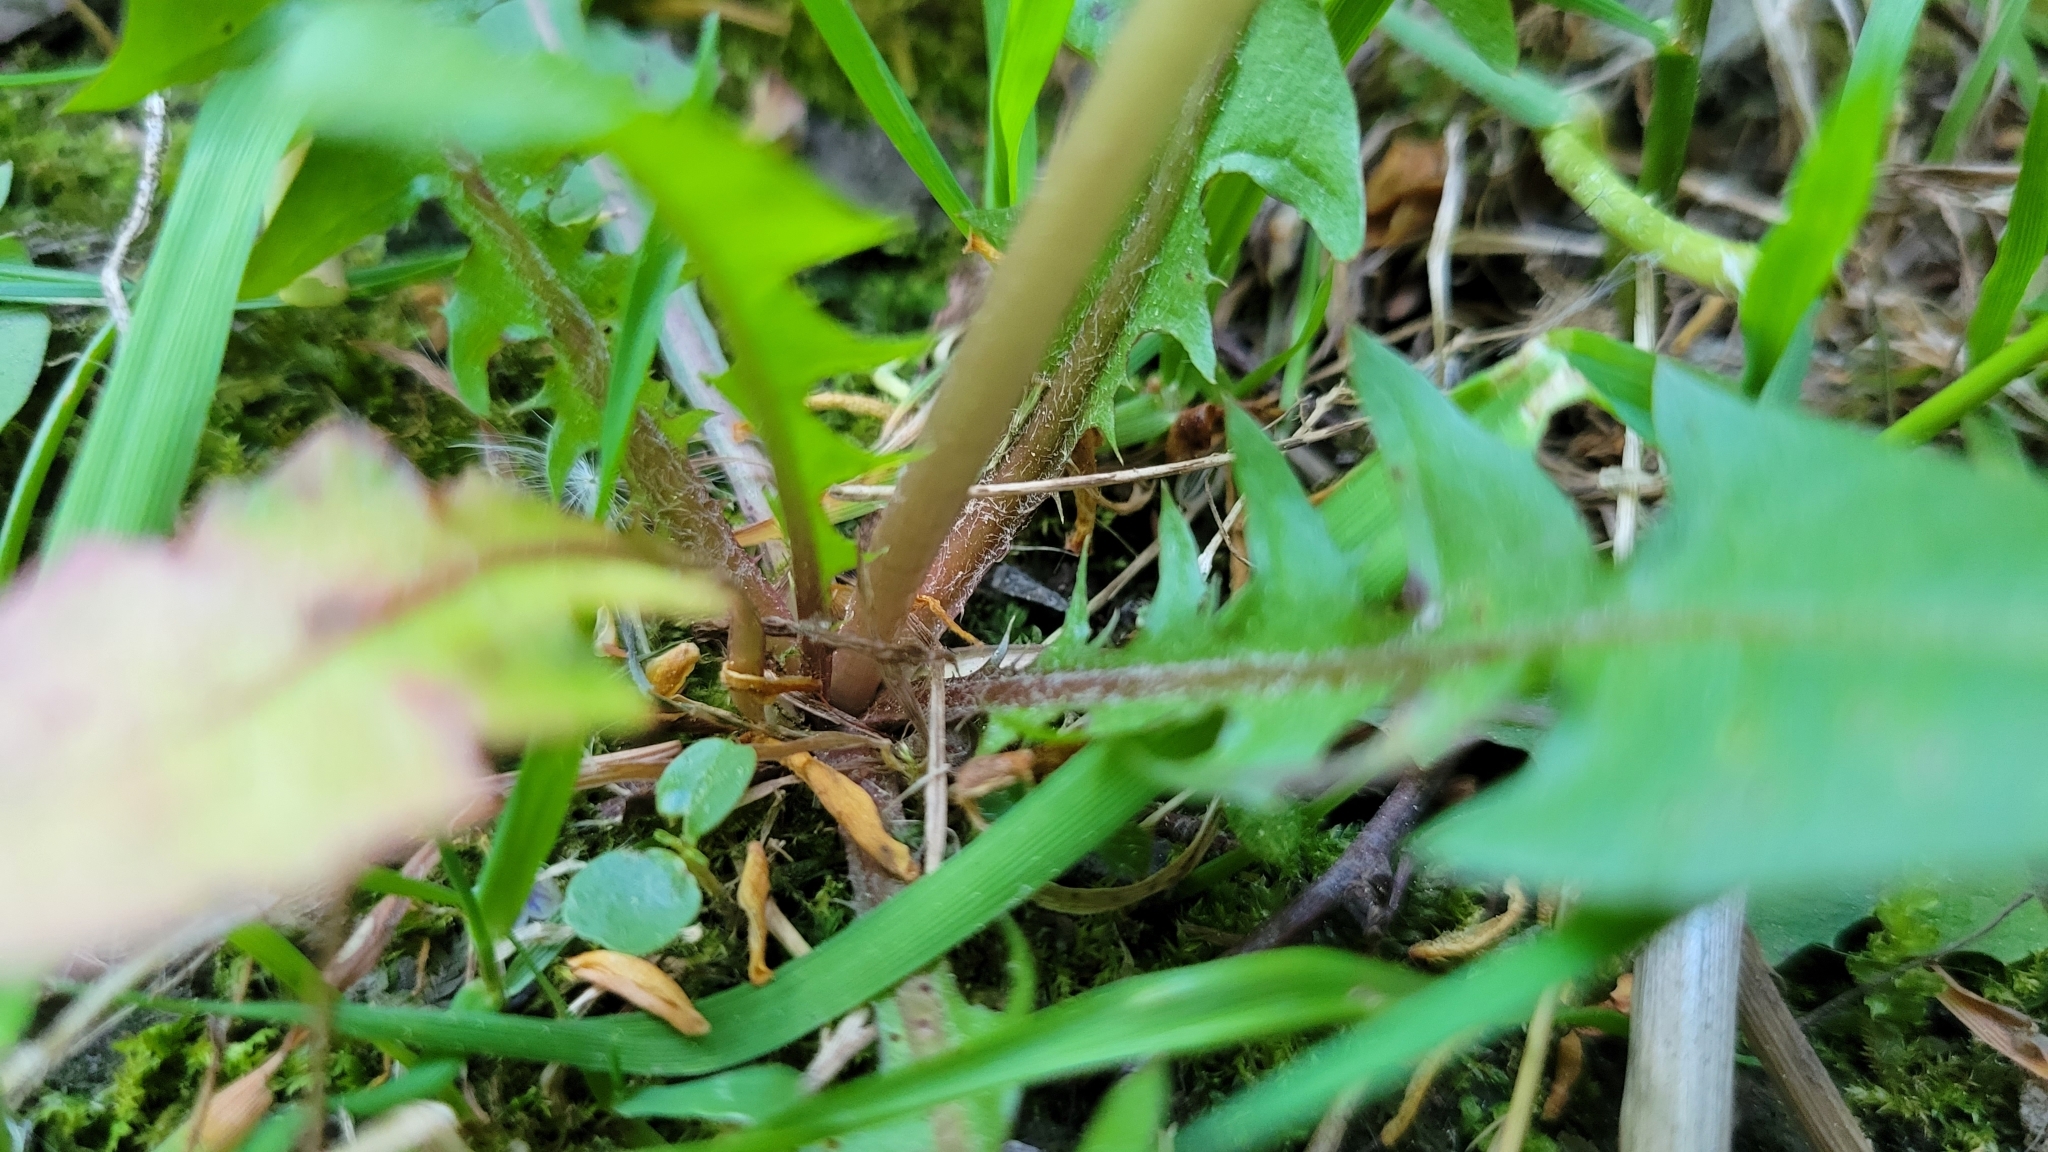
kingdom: Plantae
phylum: Tracheophyta
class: Magnoliopsida
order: Asterales
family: Asteraceae
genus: Taraxacum
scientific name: Taraxacum officinale
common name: Common dandelion
